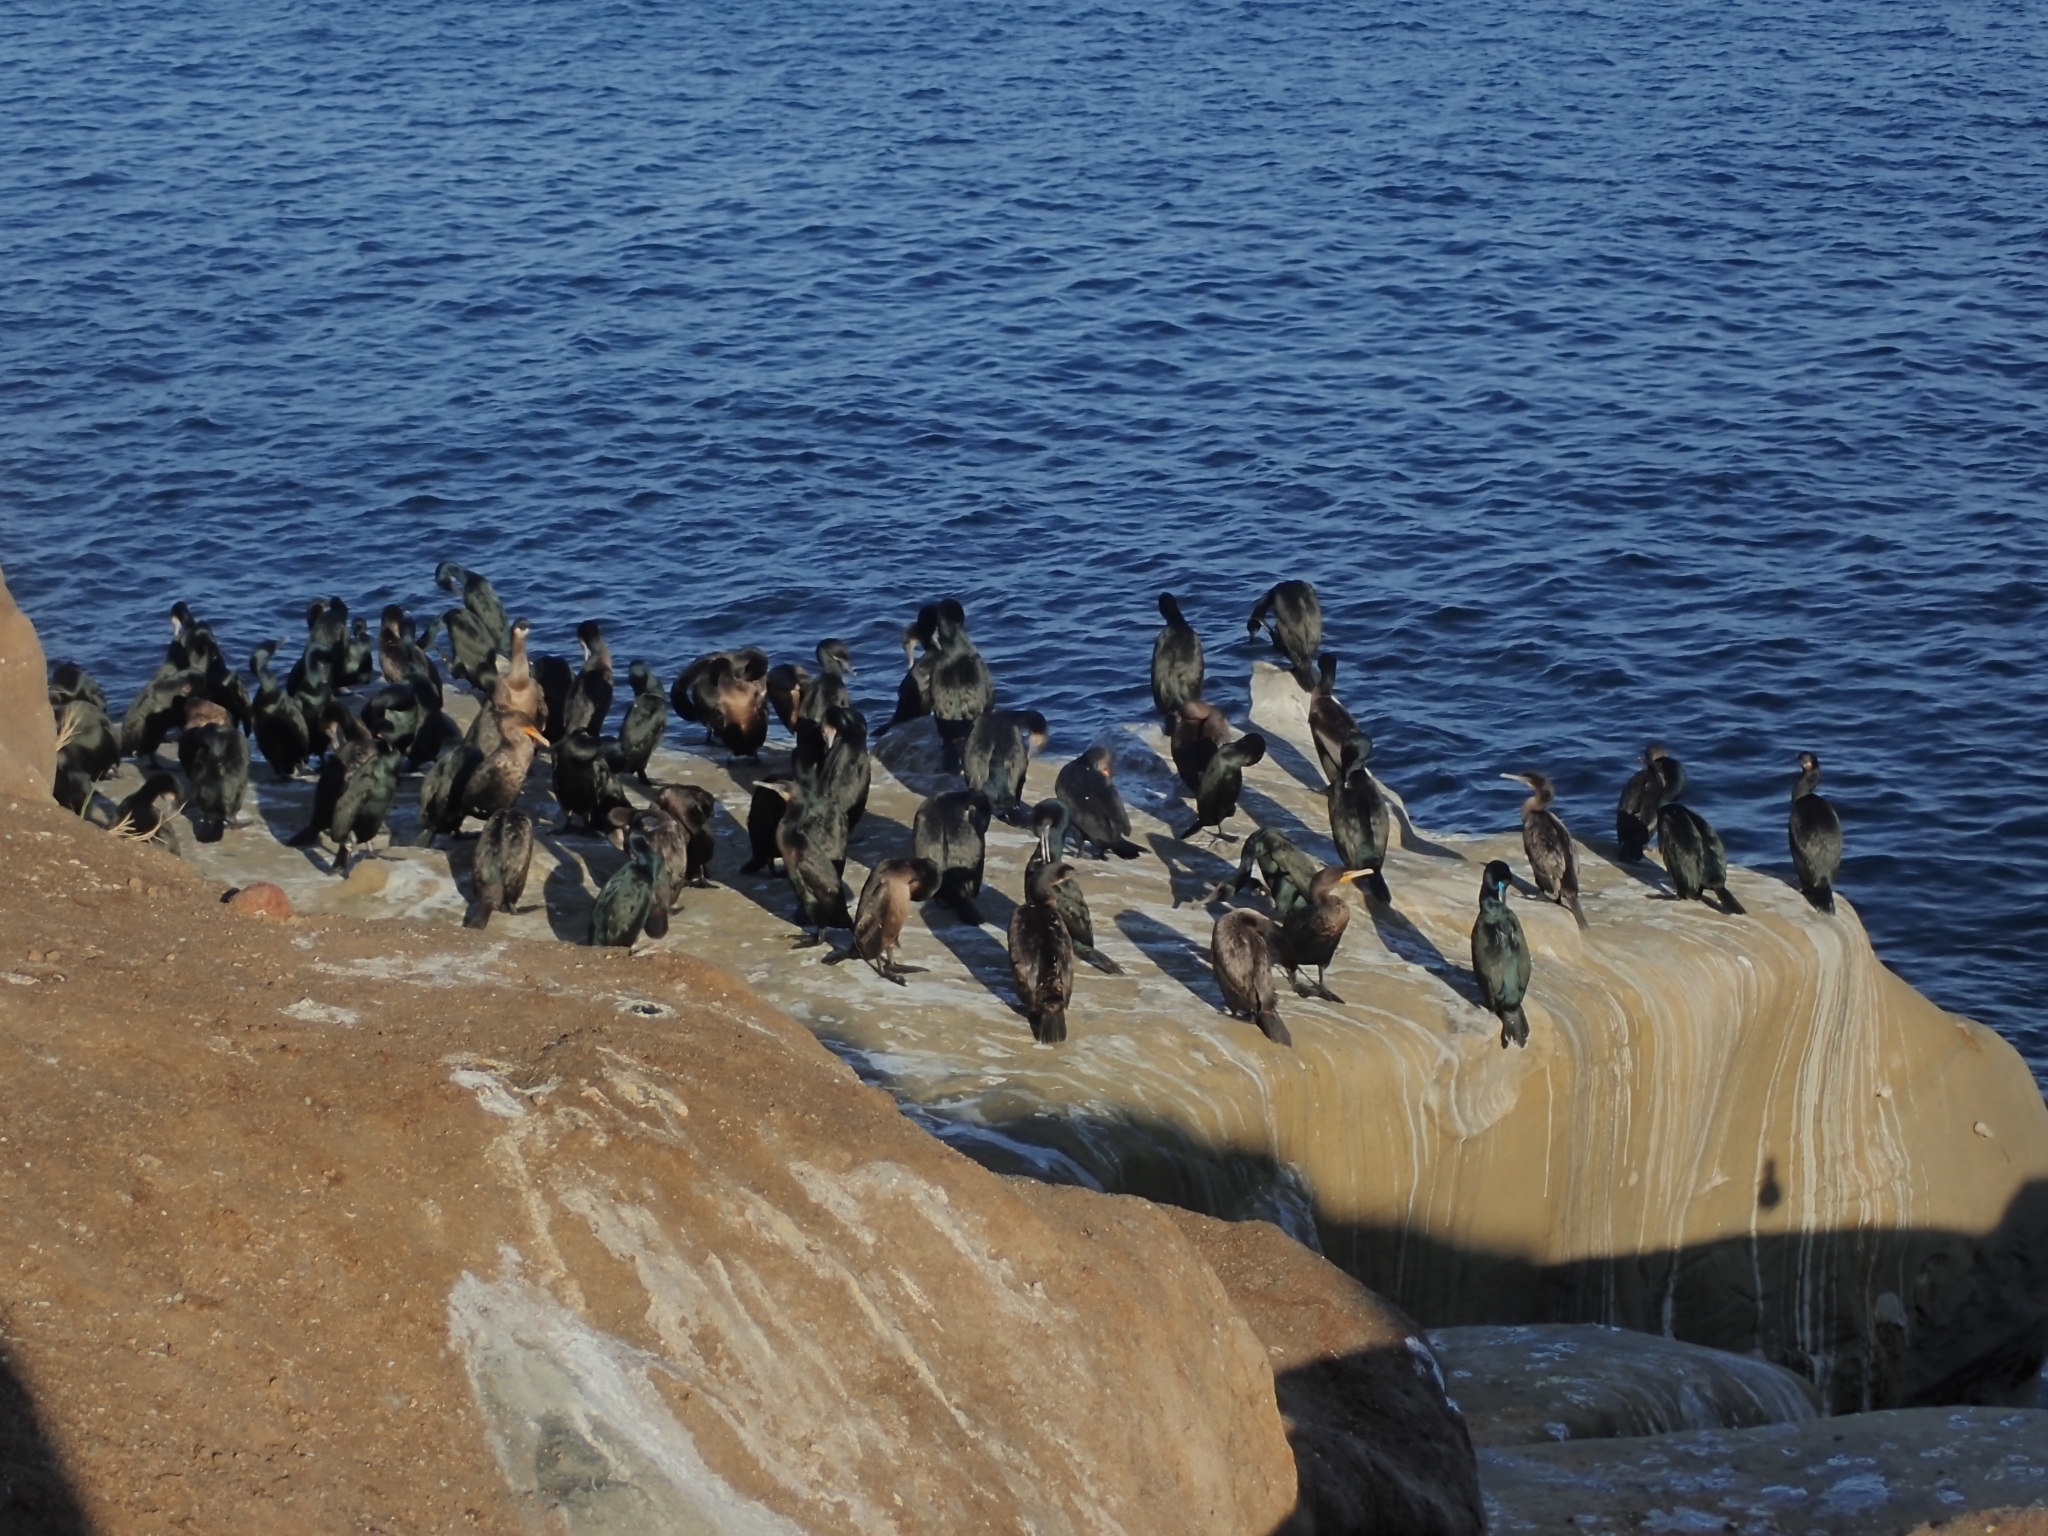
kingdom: Animalia
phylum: Chordata
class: Aves
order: Suliformes
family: Phalacrocoracidae
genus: Urile
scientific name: Urile penicillatus
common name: Brandt's cormorant
